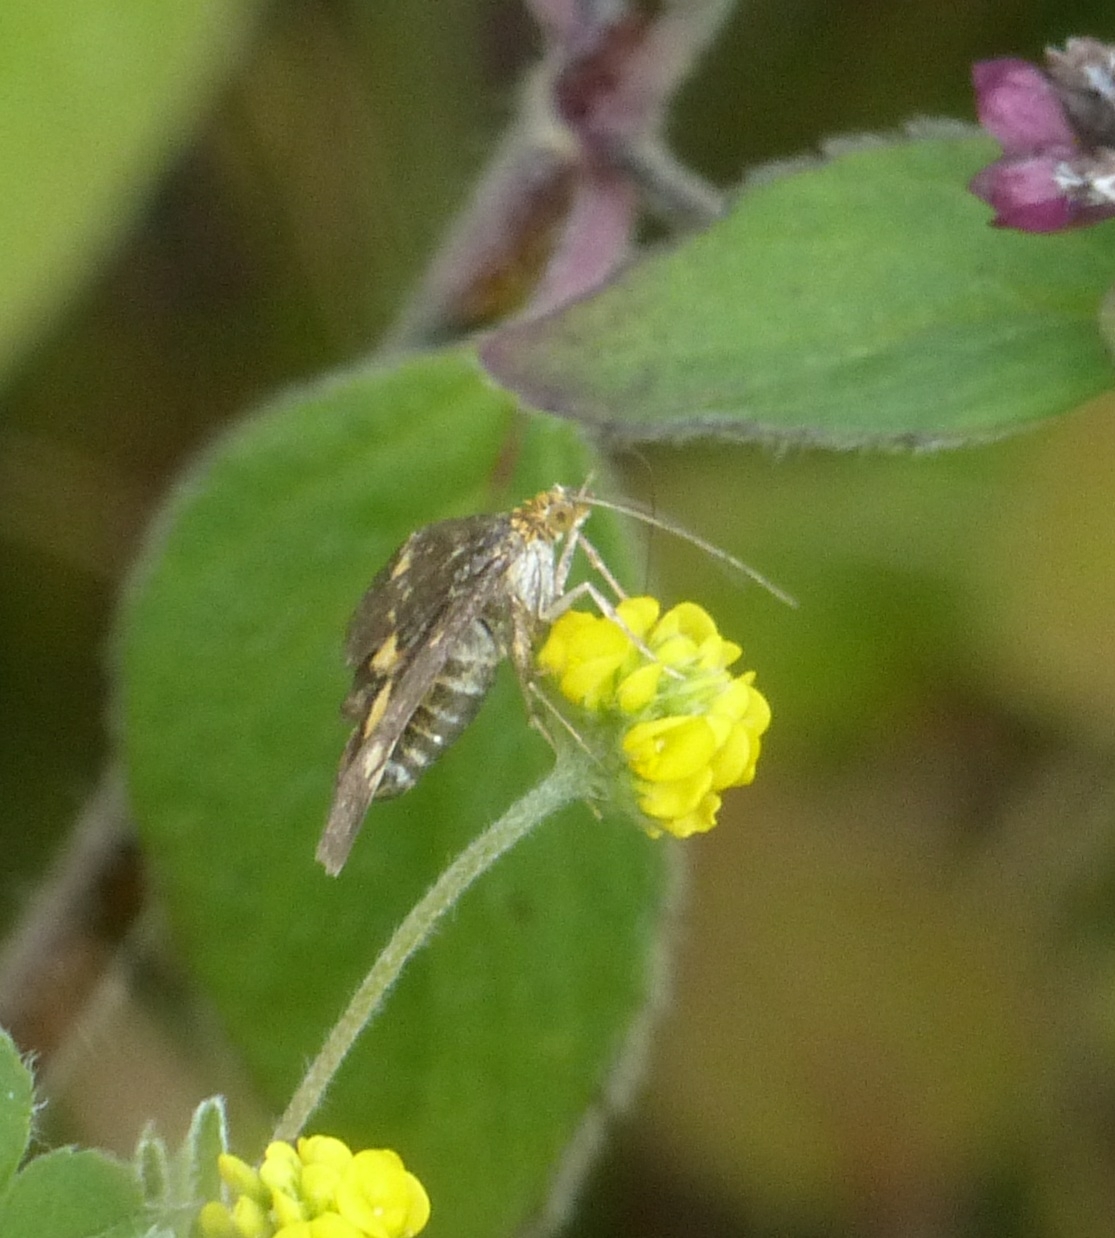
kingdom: Animalia
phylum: Arthropoda
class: Insecta
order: Lepidoptera
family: Crambidae
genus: Pyrausta
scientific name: Pyrausta aurata
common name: Small purple & gold
